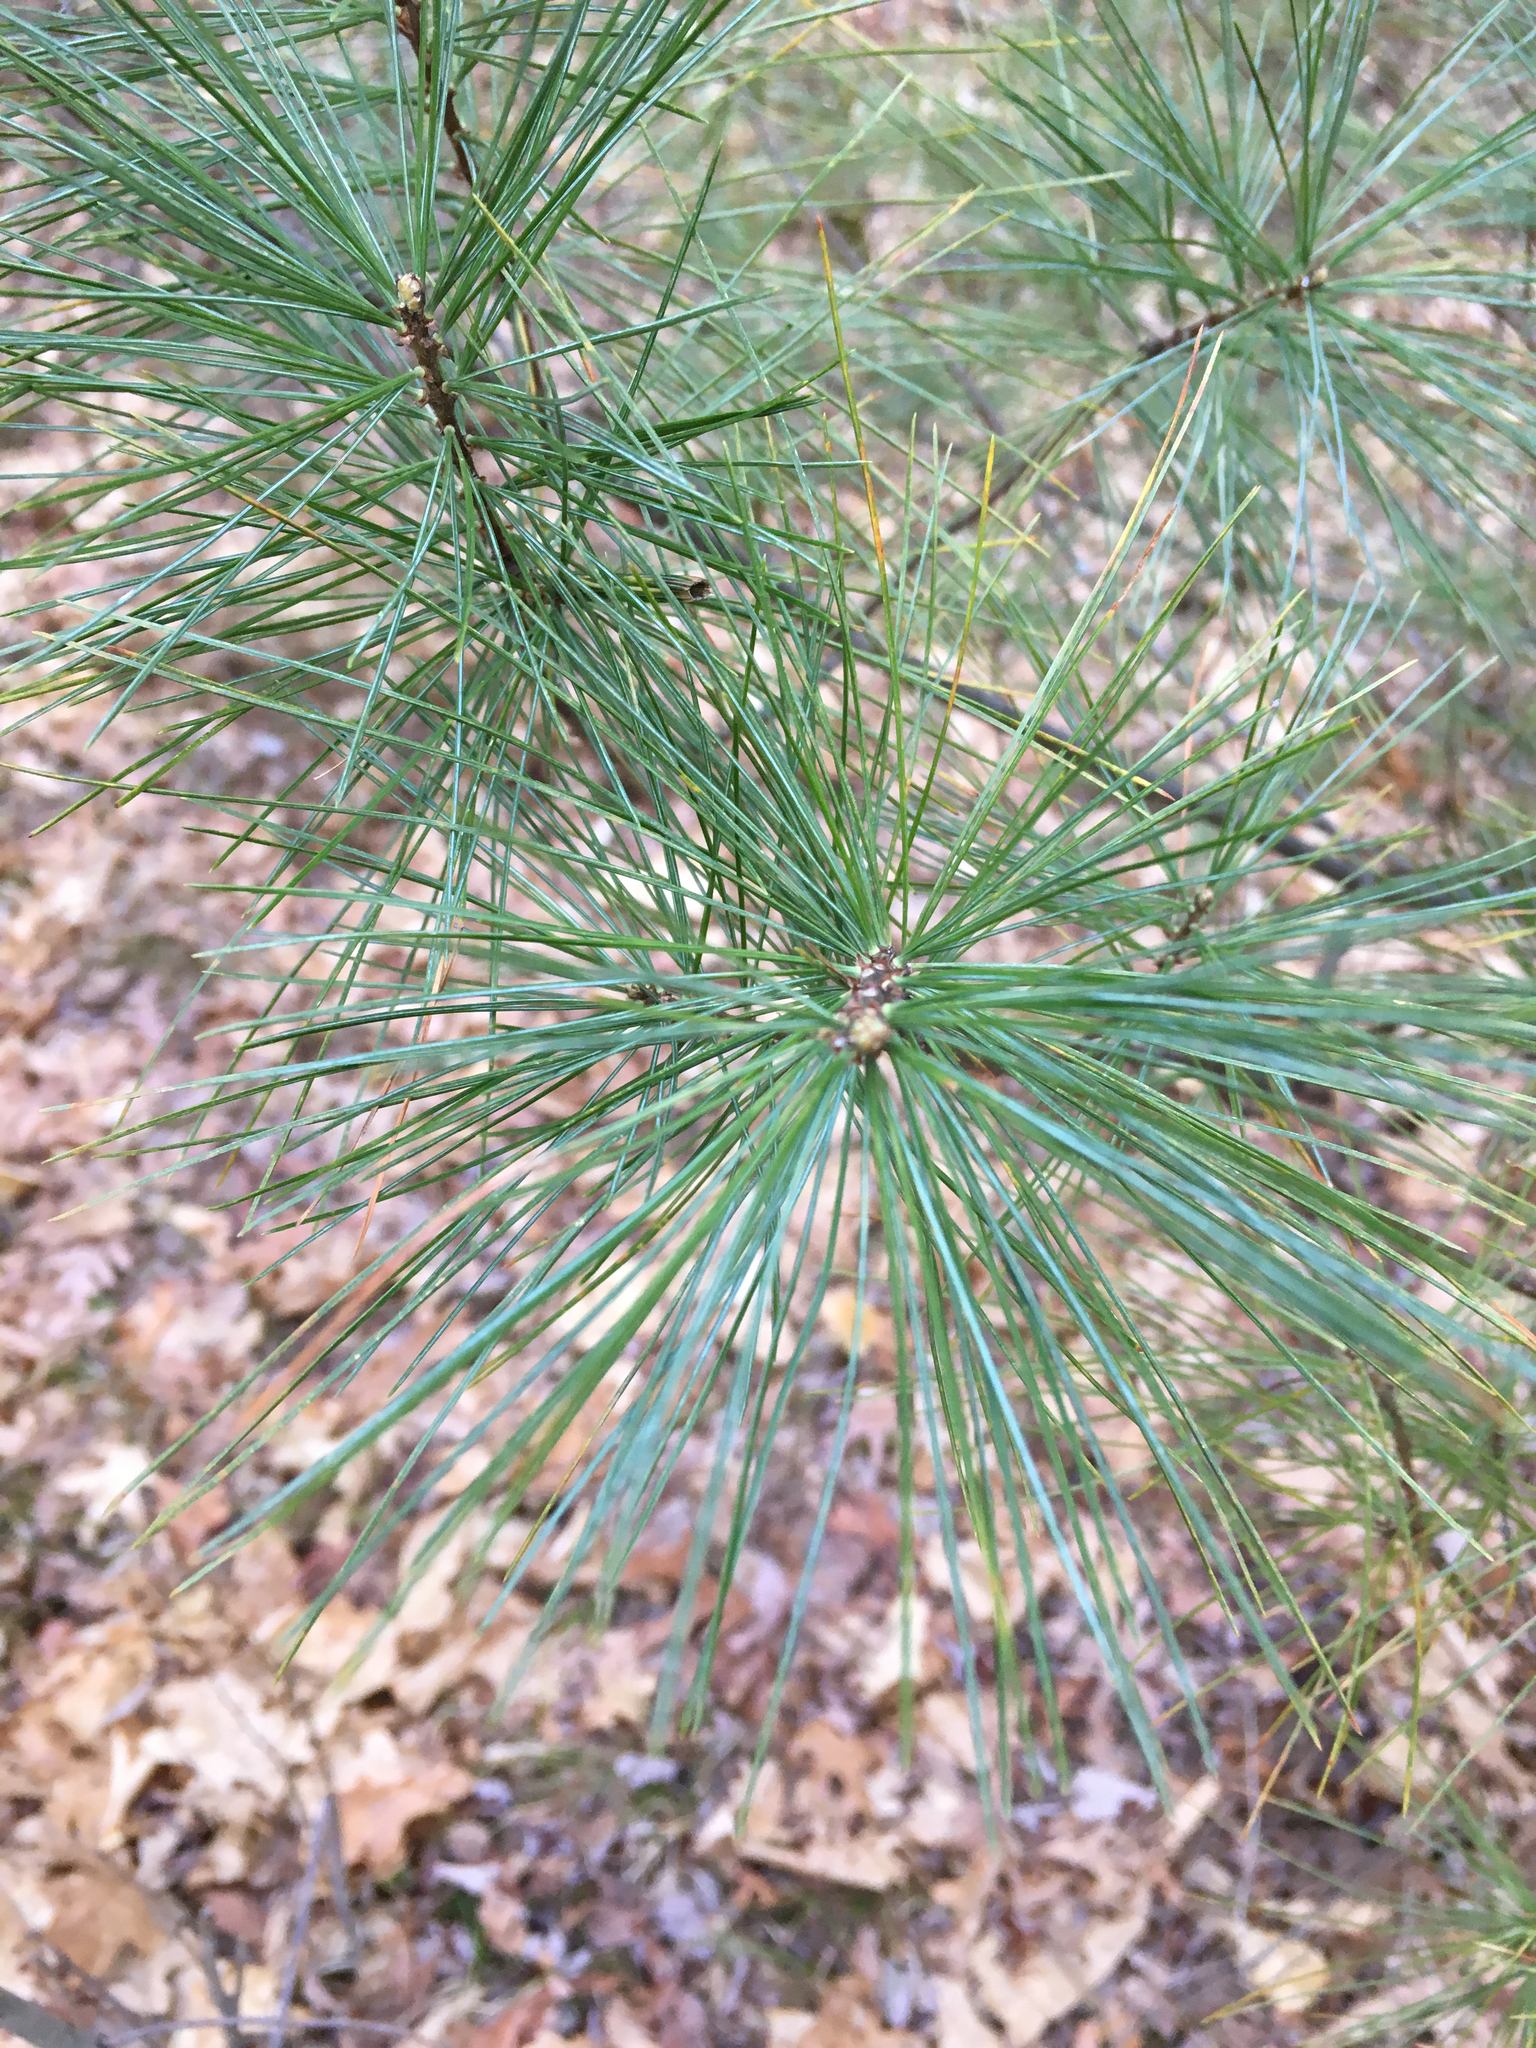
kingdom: Plantae
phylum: Tracheophyta
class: Pinopsida
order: Pinales
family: Pinaceae
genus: Pinus
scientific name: Pinus strobus
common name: Weymouth pine
